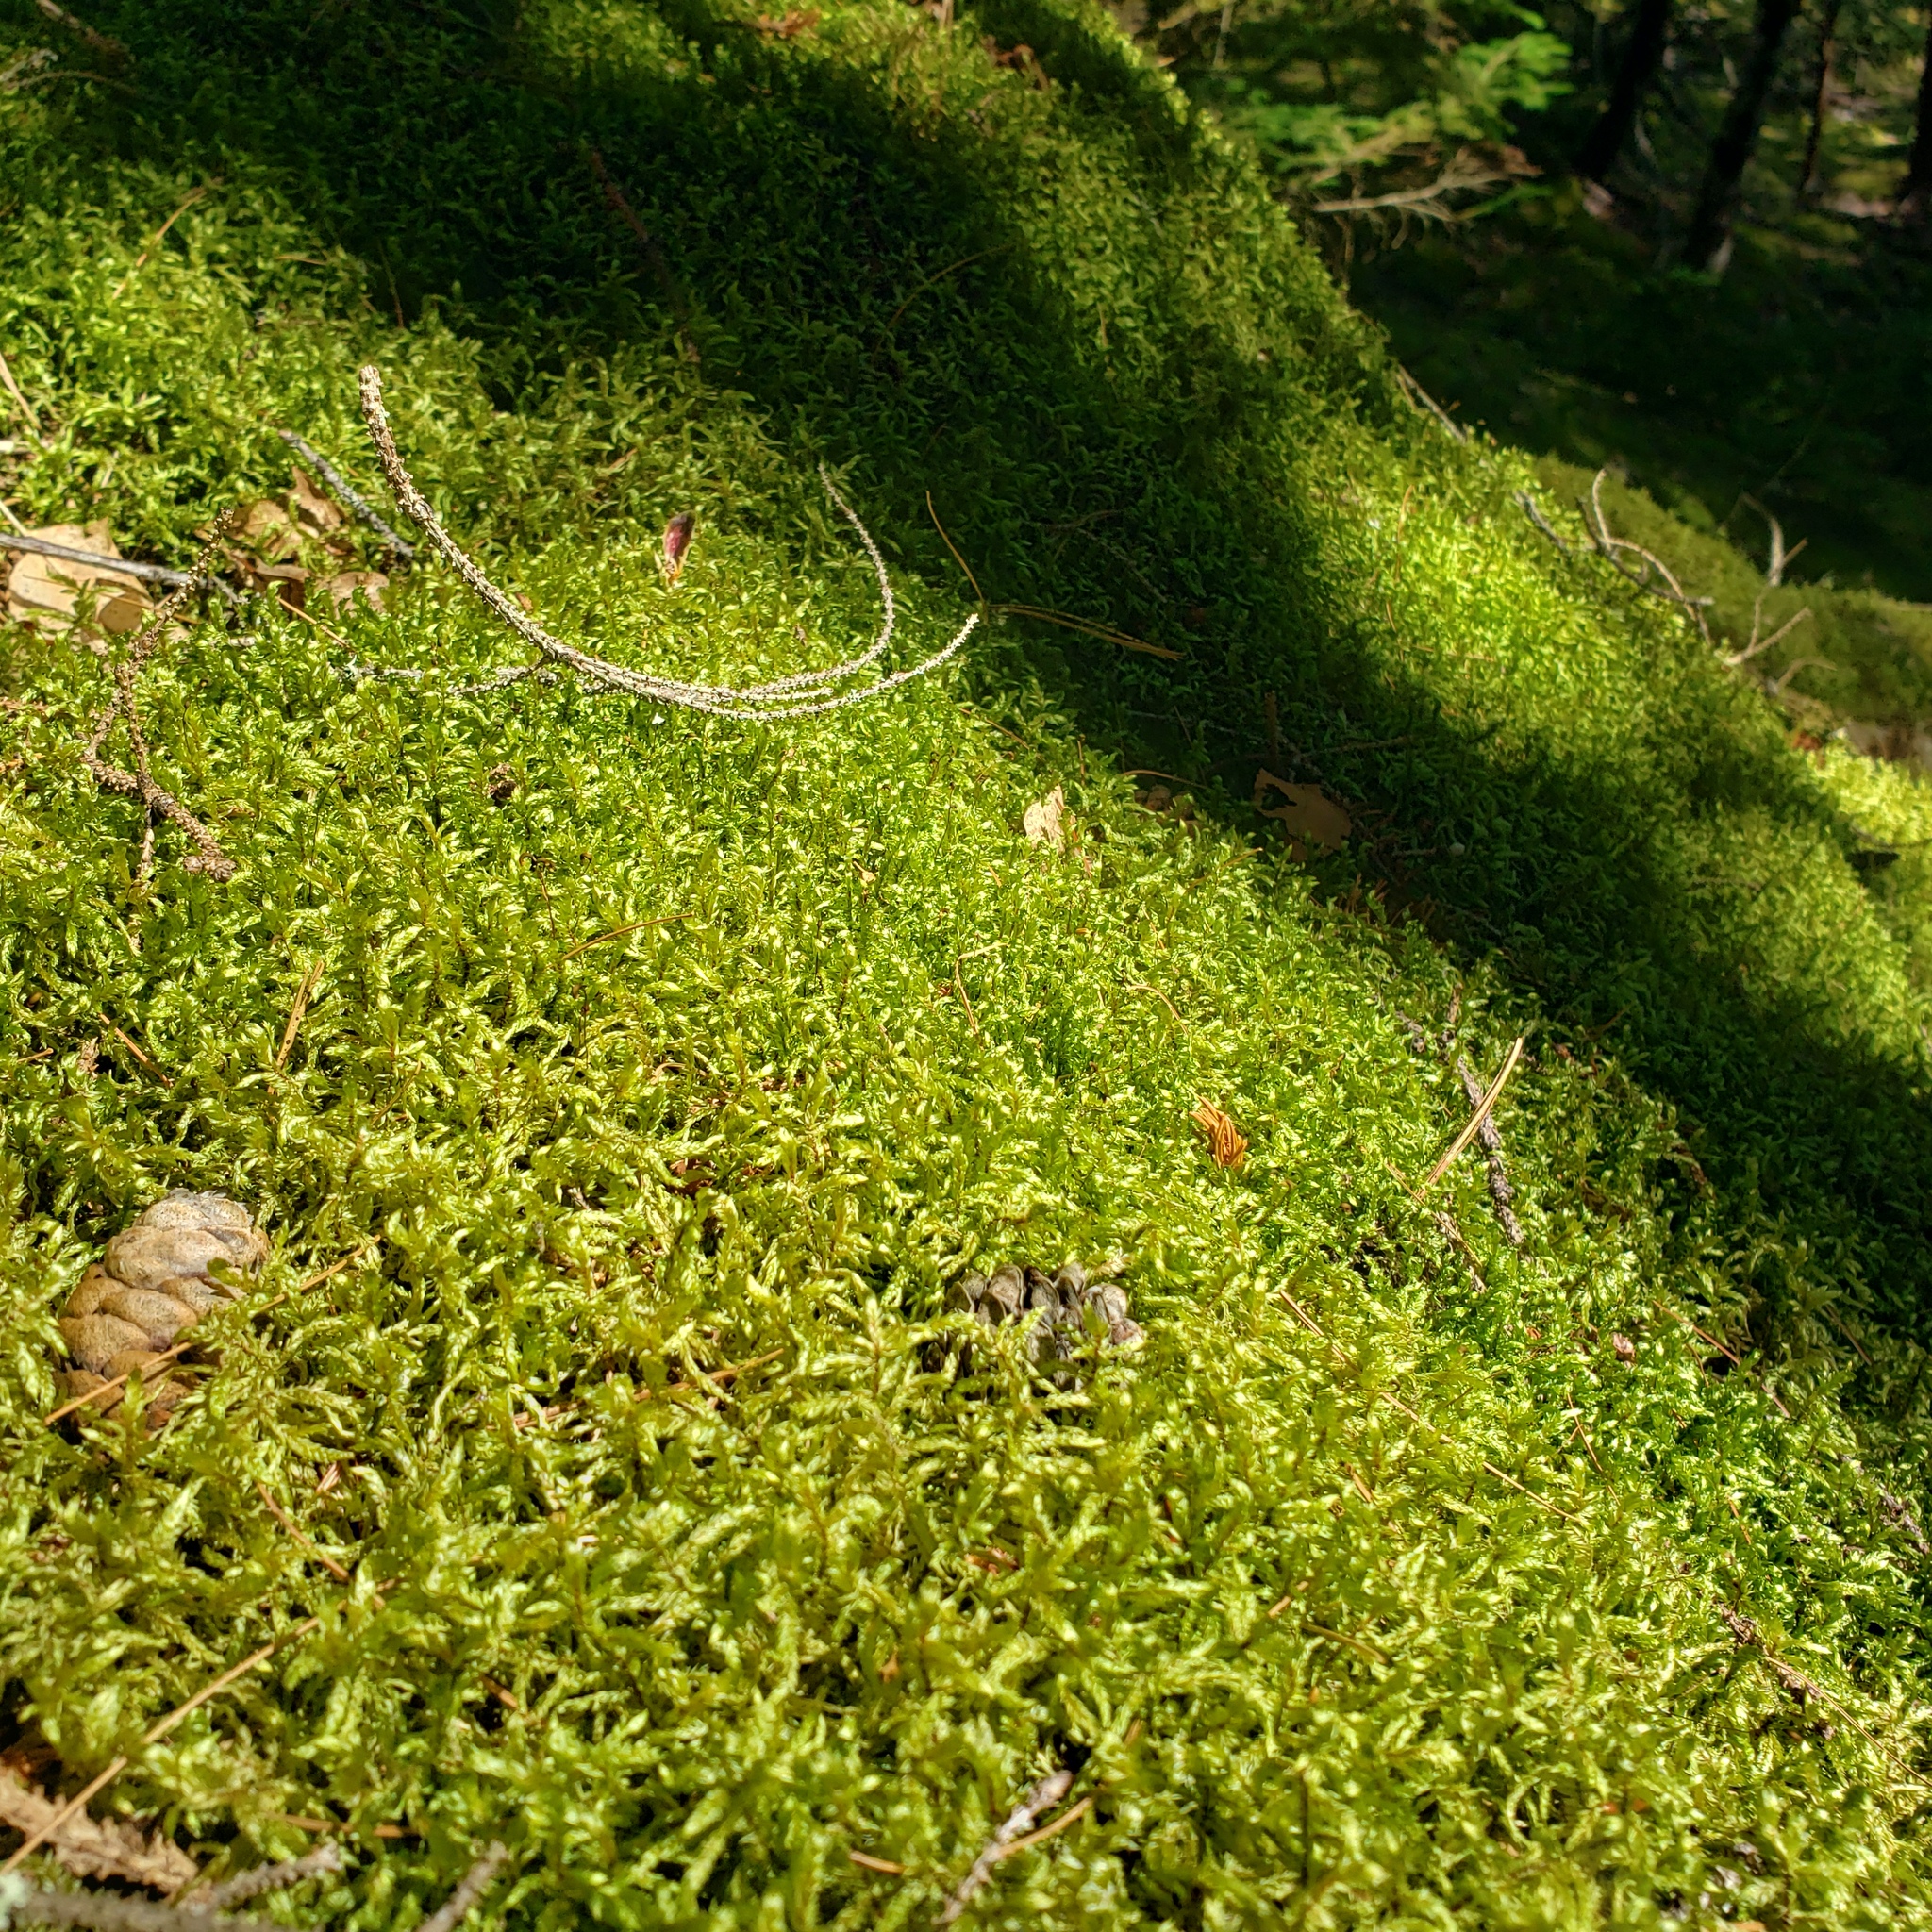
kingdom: Plantae
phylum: Bryophyta
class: Bryopsida
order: Hypnales
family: Hylocomiaceae
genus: Pleurozium
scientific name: Pleurozium schreberi
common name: Red-stemmed feather moss
